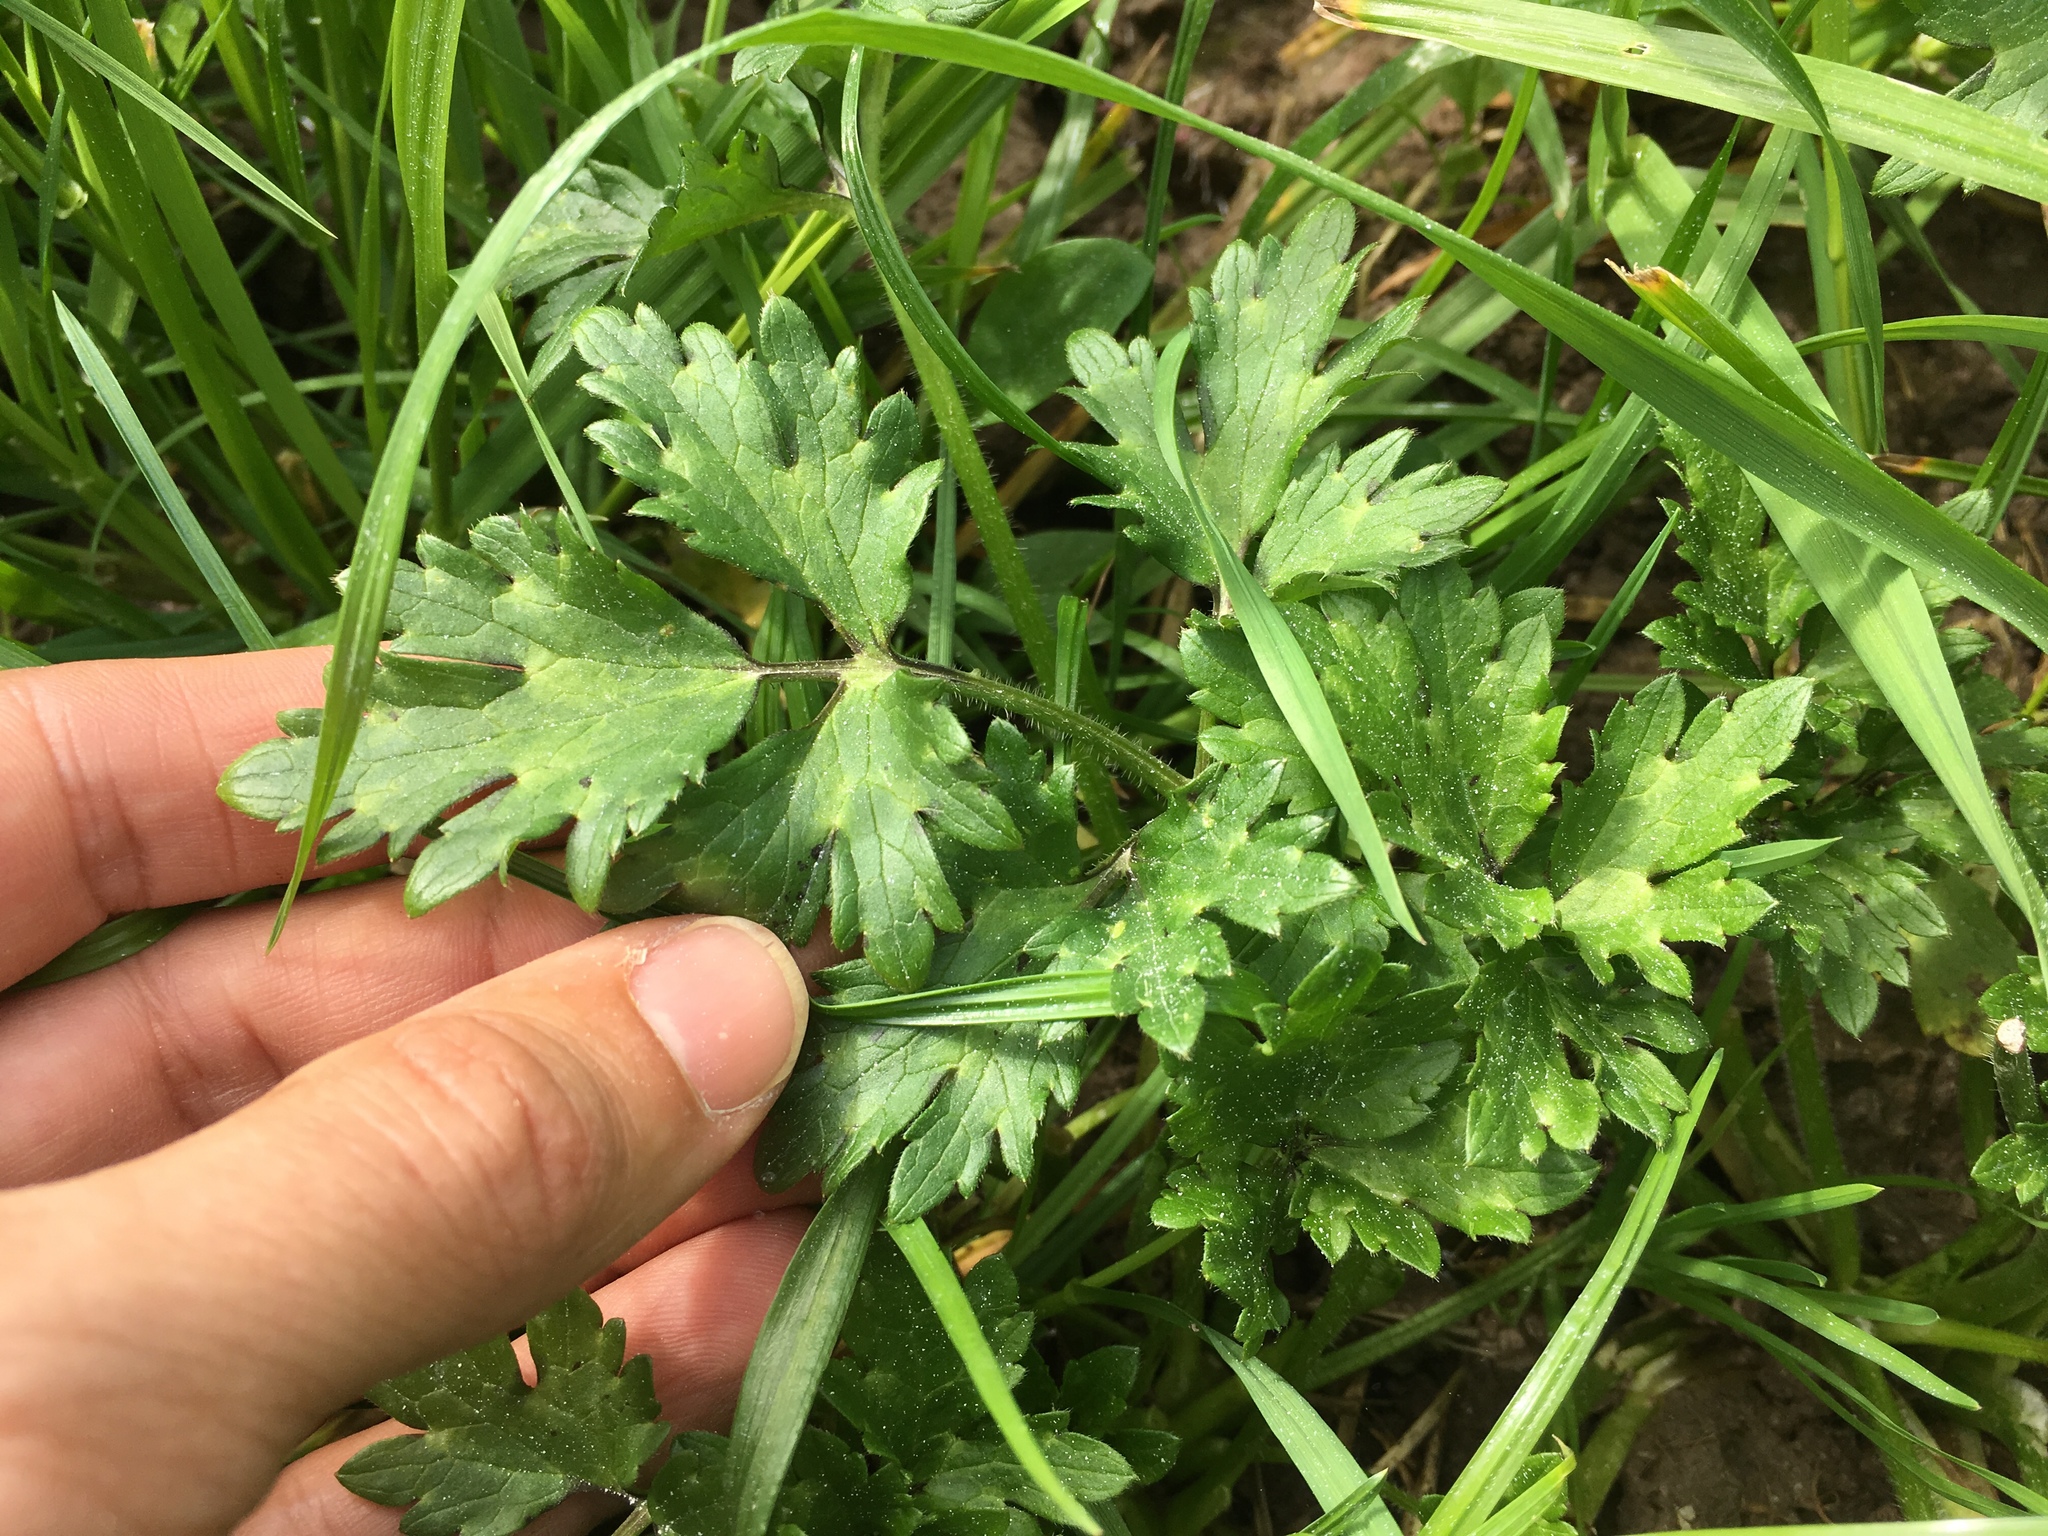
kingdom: Plantae
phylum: Tracheophyta
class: Magnoliopsida
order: Ranunculales
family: Ranunculaceae
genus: Ranunculus
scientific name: Ranunculus repens
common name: Creeping buttercup
